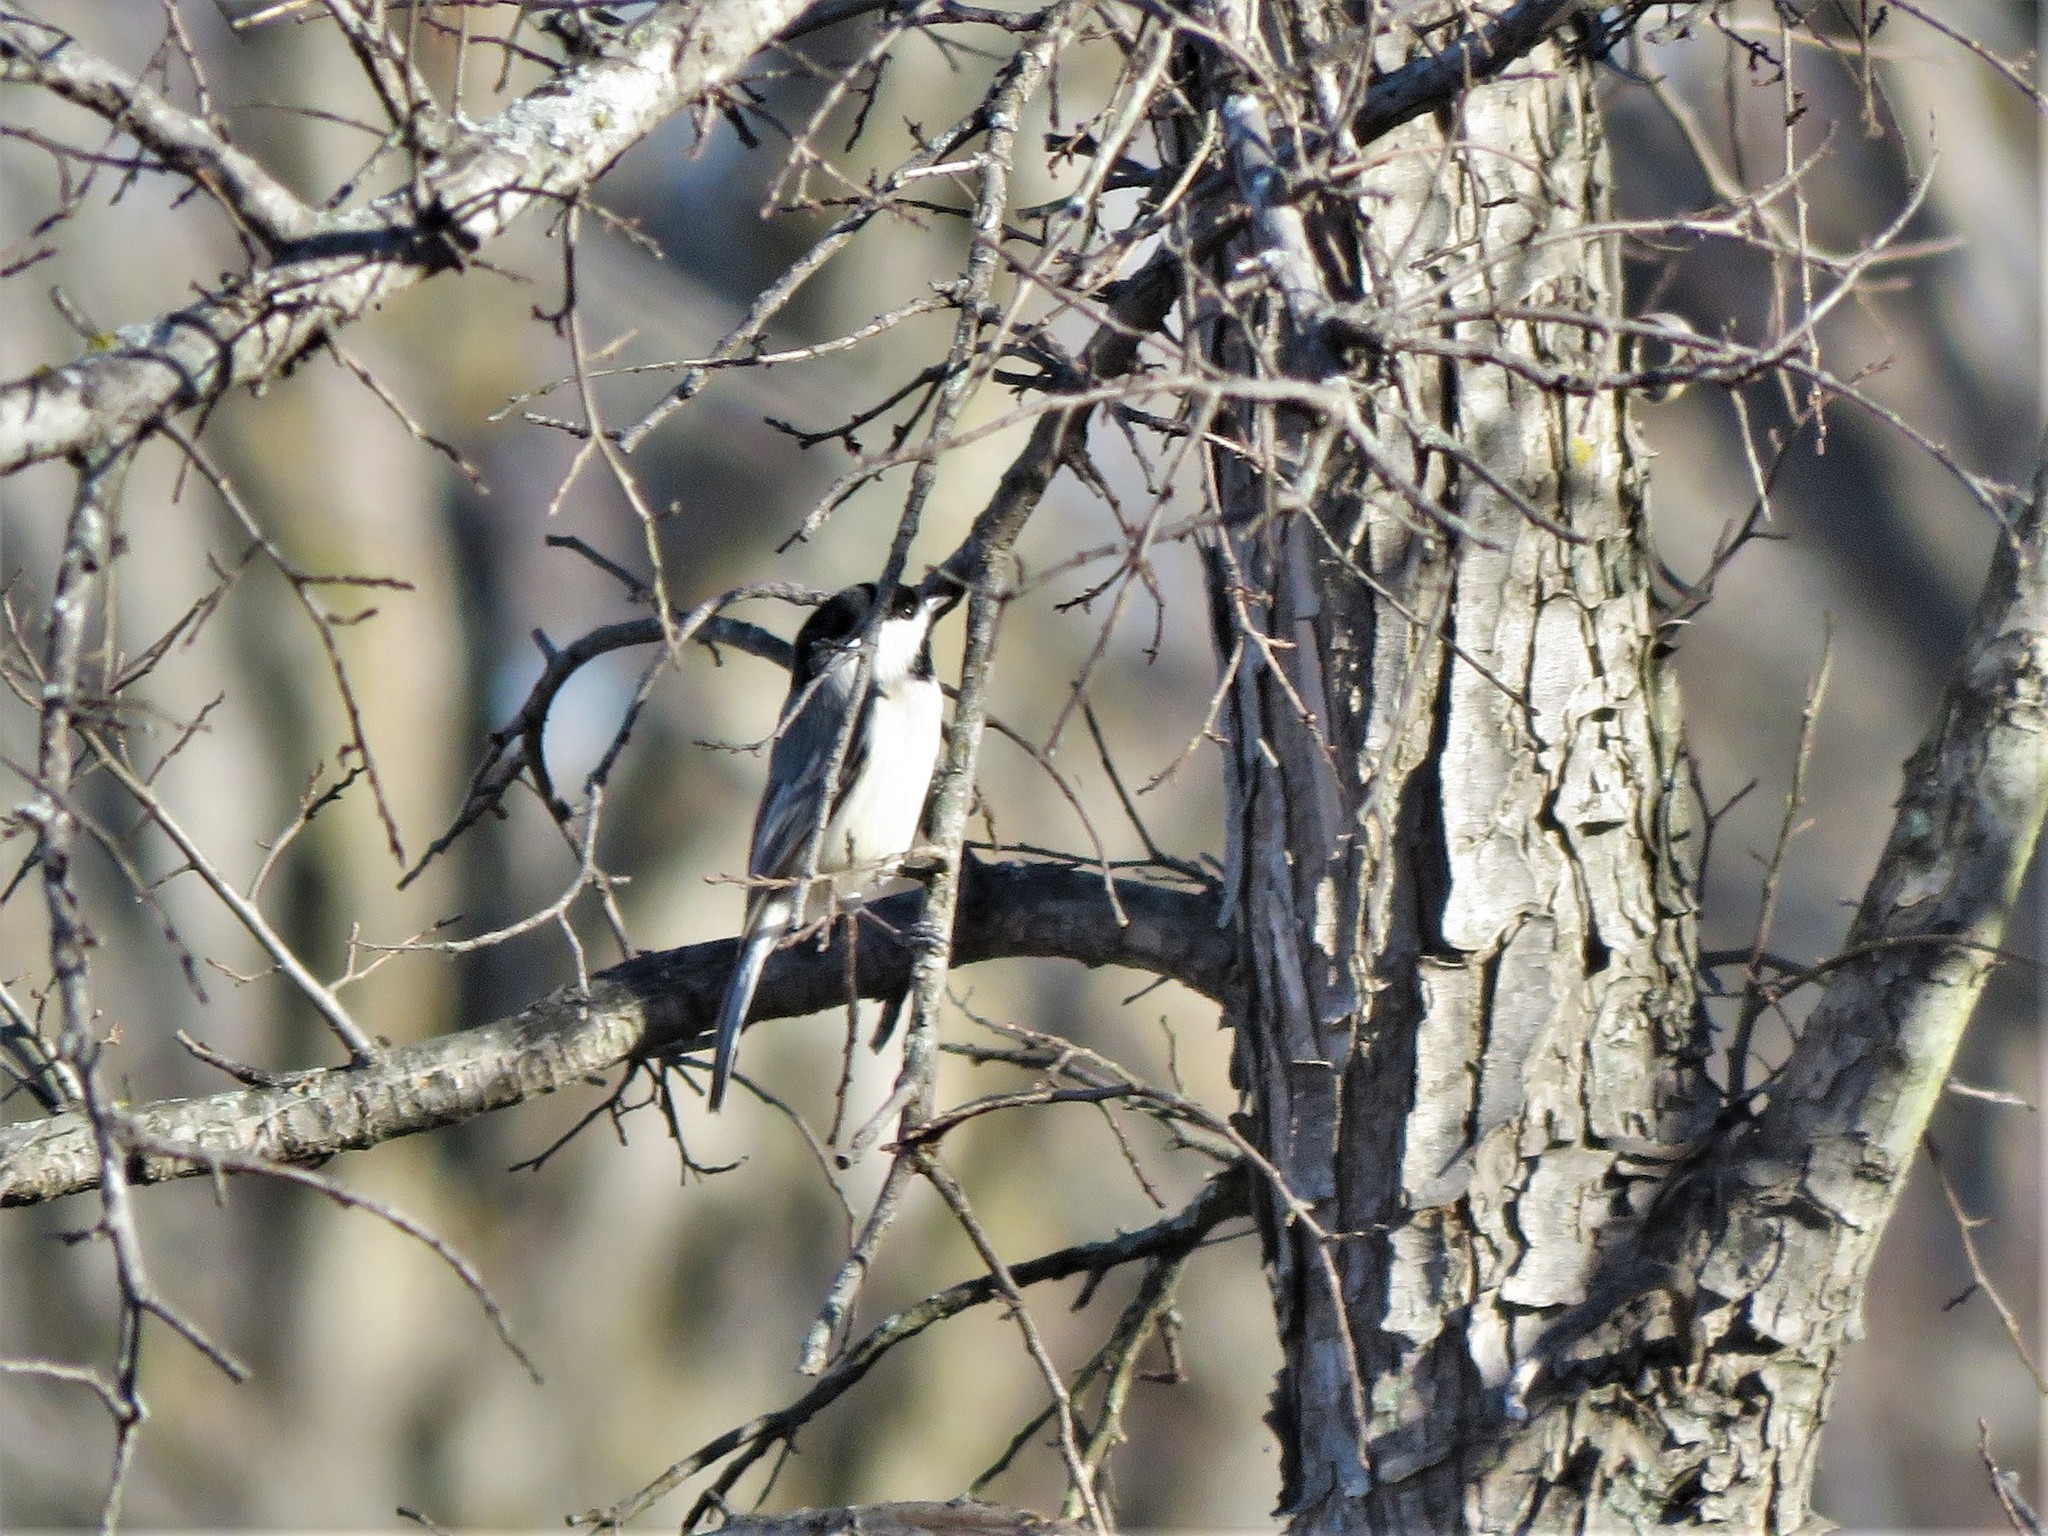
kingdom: Animalia
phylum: Chordata
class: Aves
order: Passeriformes
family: Paridae
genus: Poecile
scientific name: Poecile carolinensis
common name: Carolina chickadee
